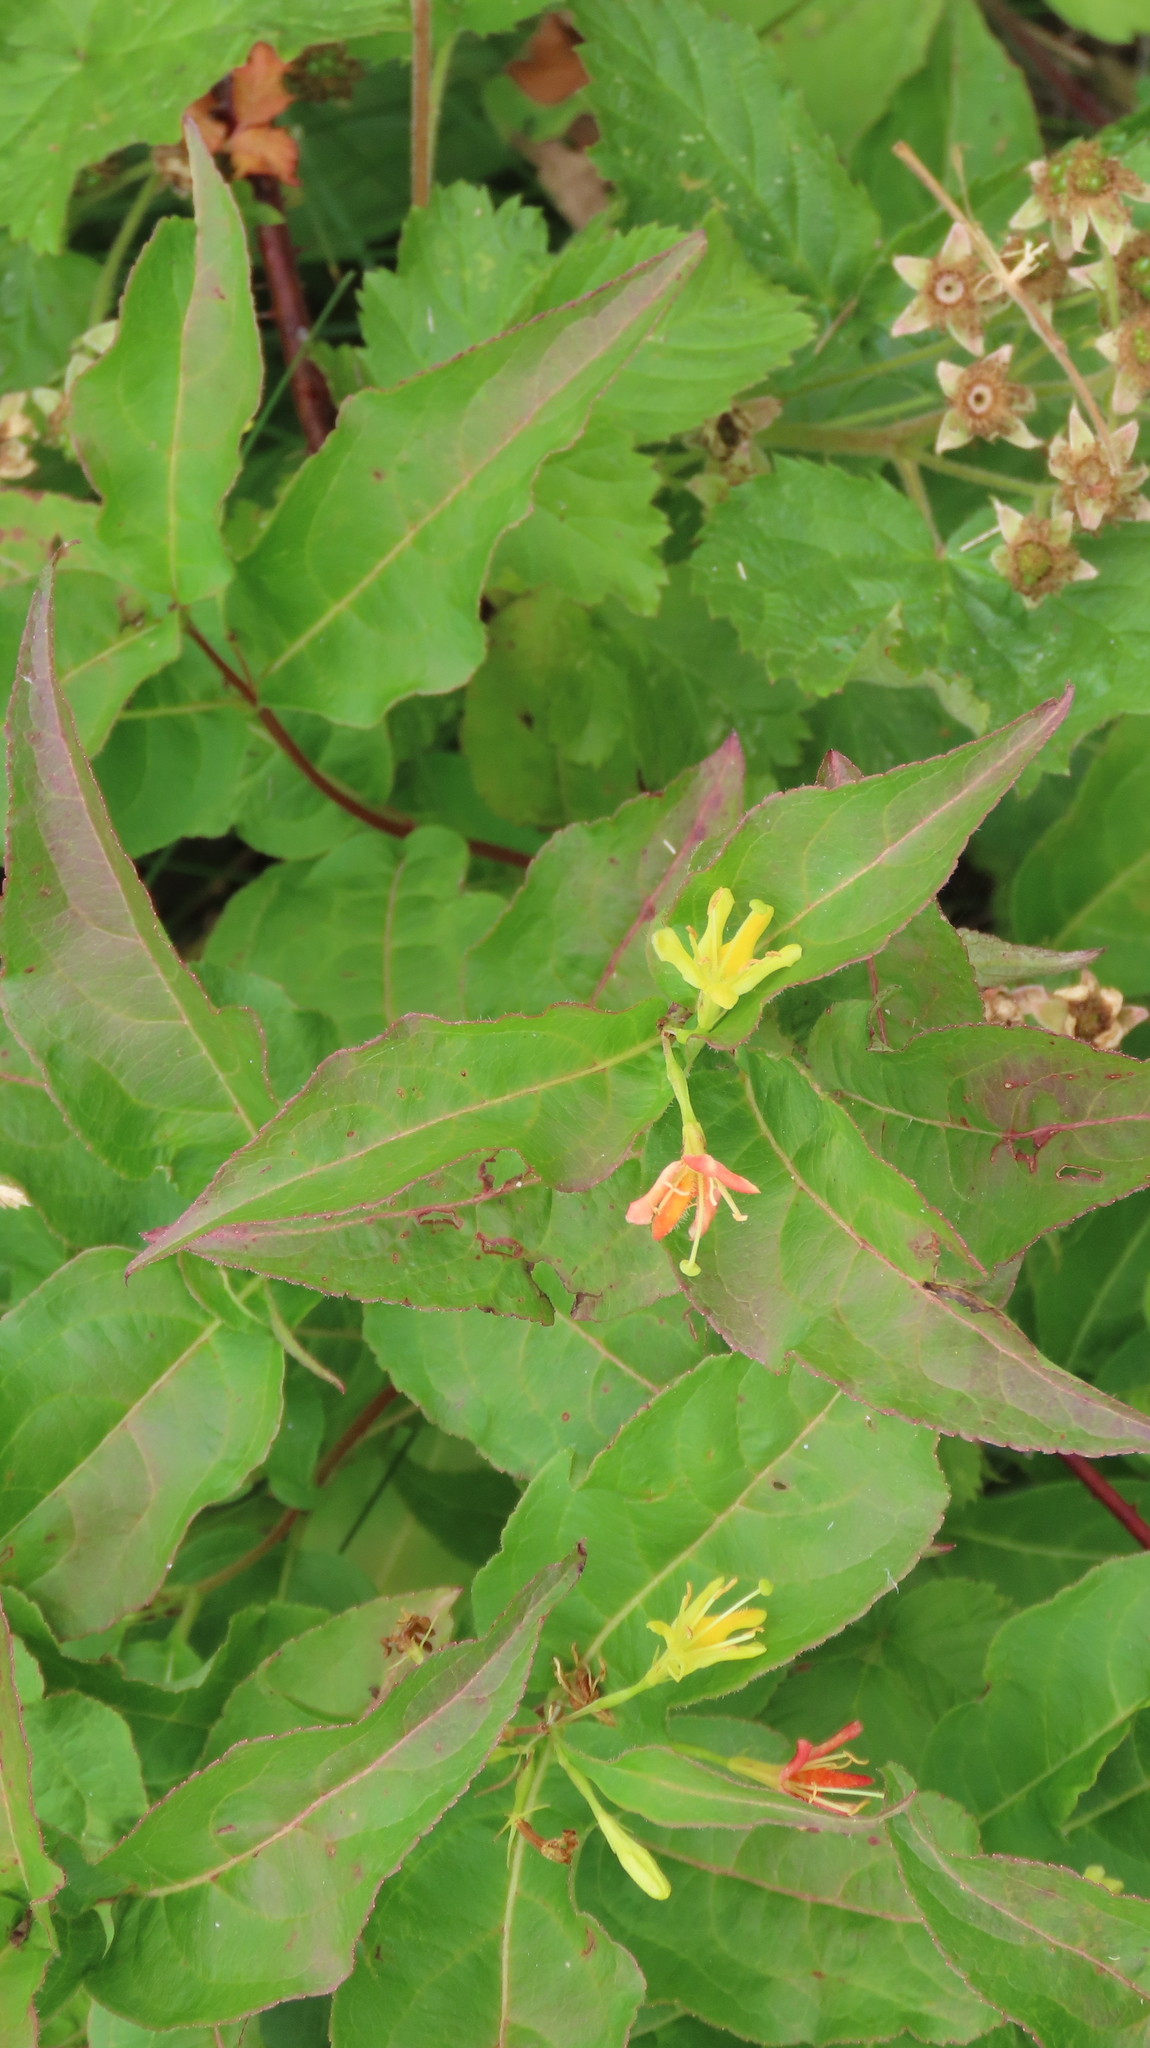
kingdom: Plantae
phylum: Tracheophyta
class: Magnoliopsida
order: Dipsacales
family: Caprifoliaceae
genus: Diervilla
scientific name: Diervilla lonicera
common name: Bush-honeysuckle
